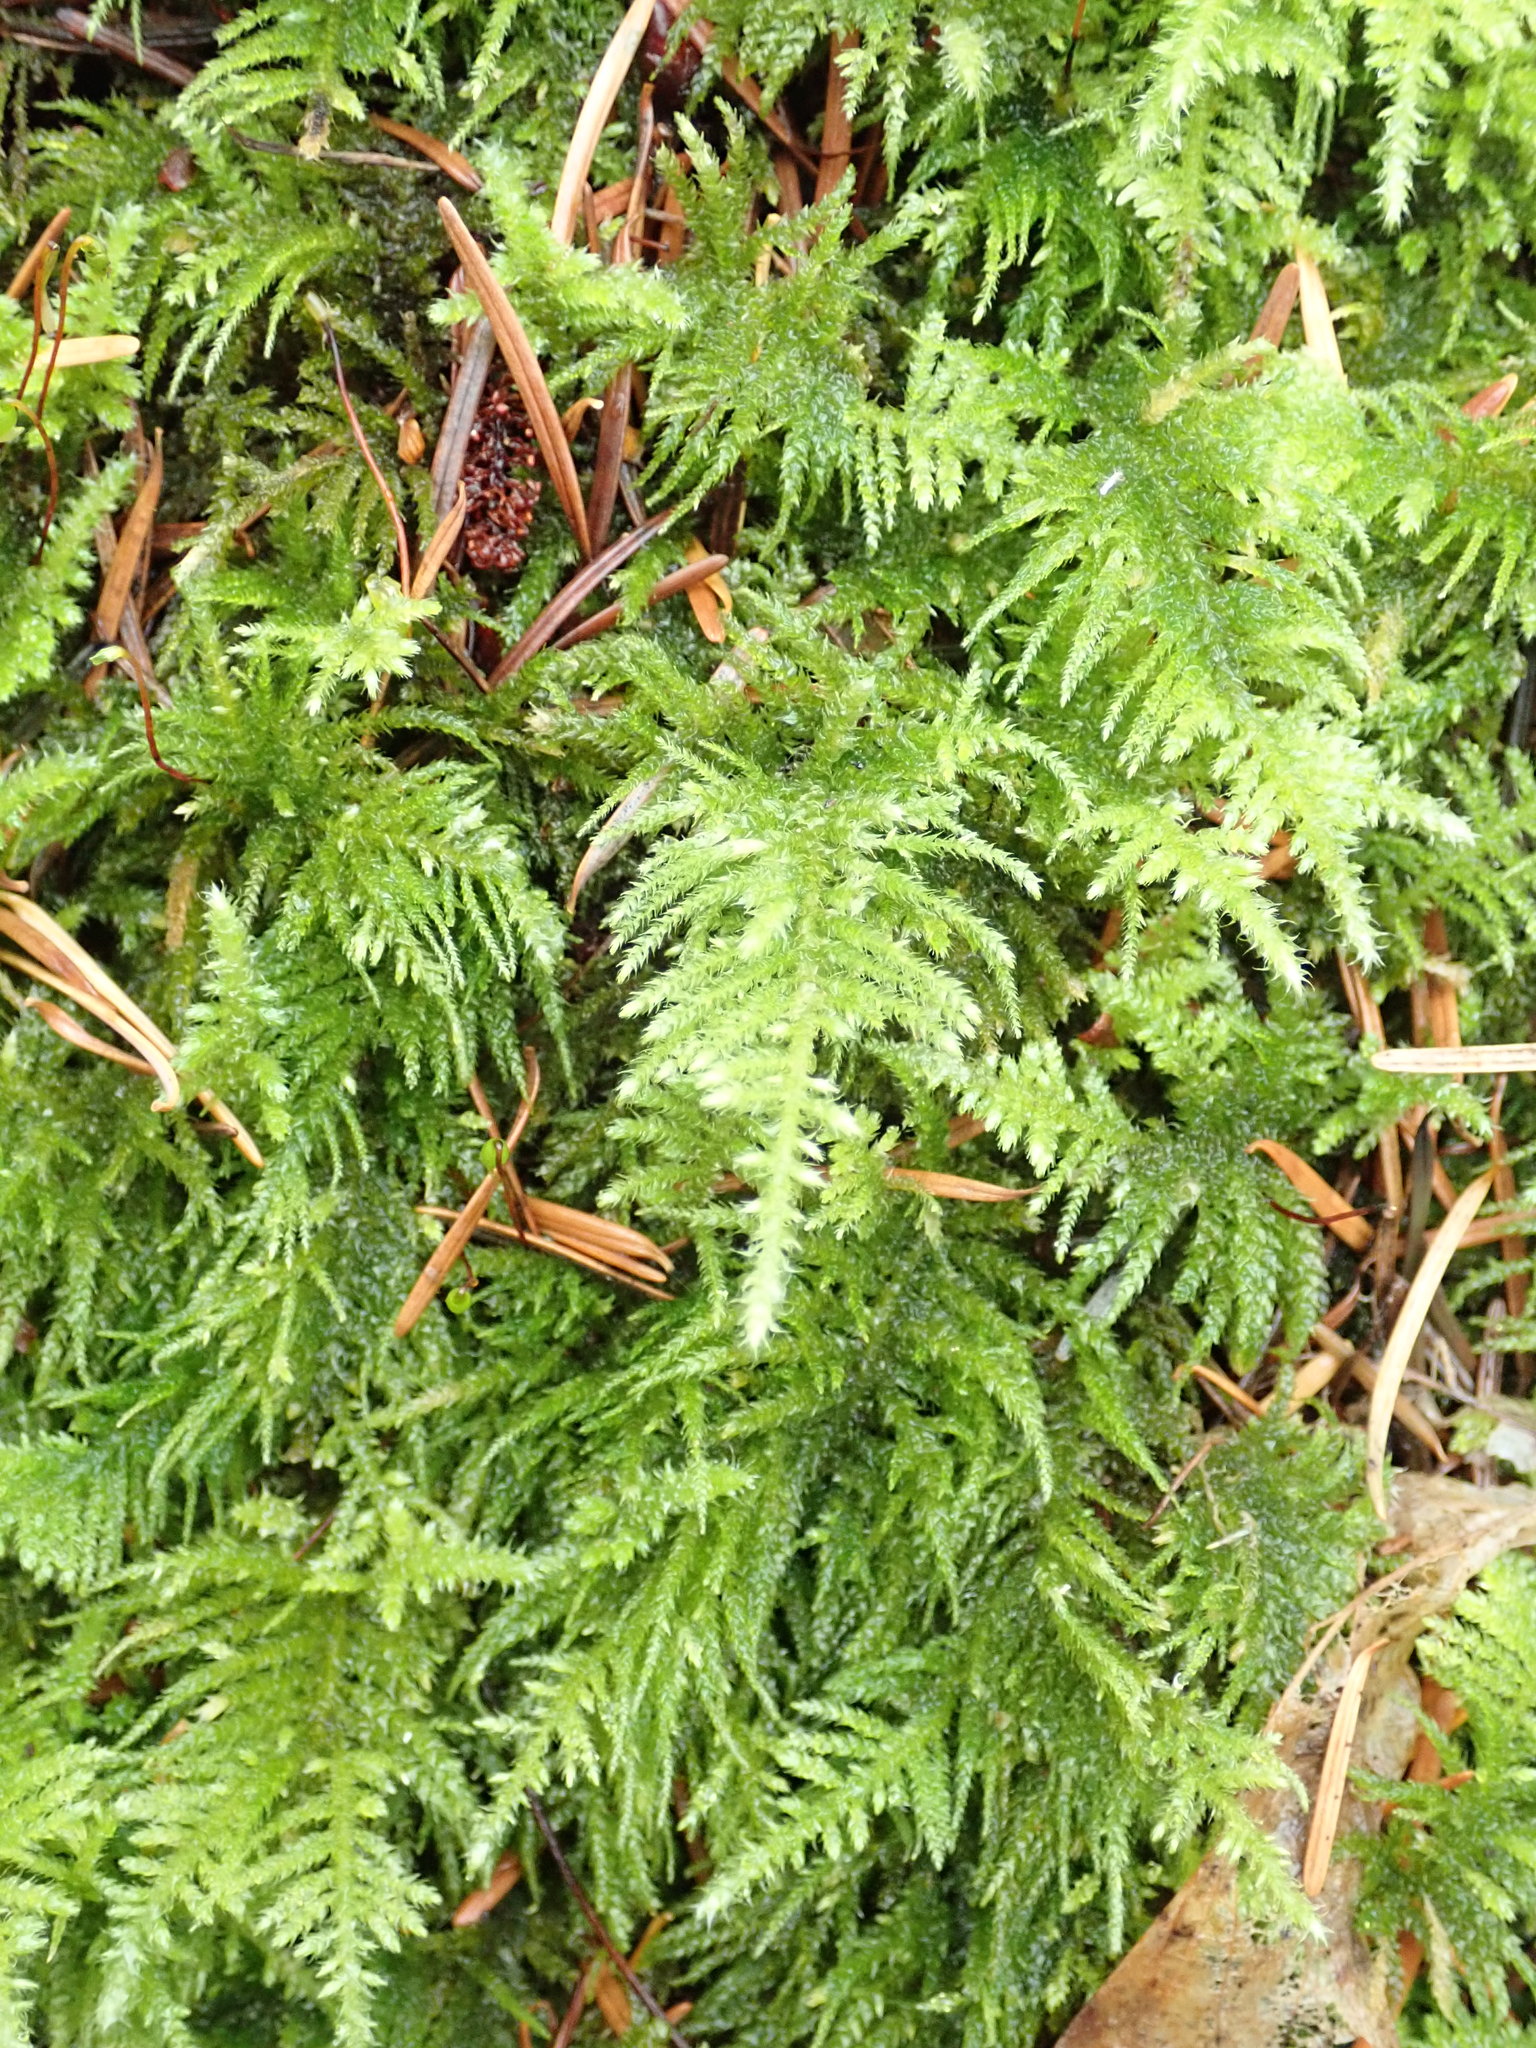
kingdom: Plantae
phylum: Bryophyta
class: Bryopsida
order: Hypnales
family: Brachytheciaceae
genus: Kindbergia
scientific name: Kindbergia oregana
